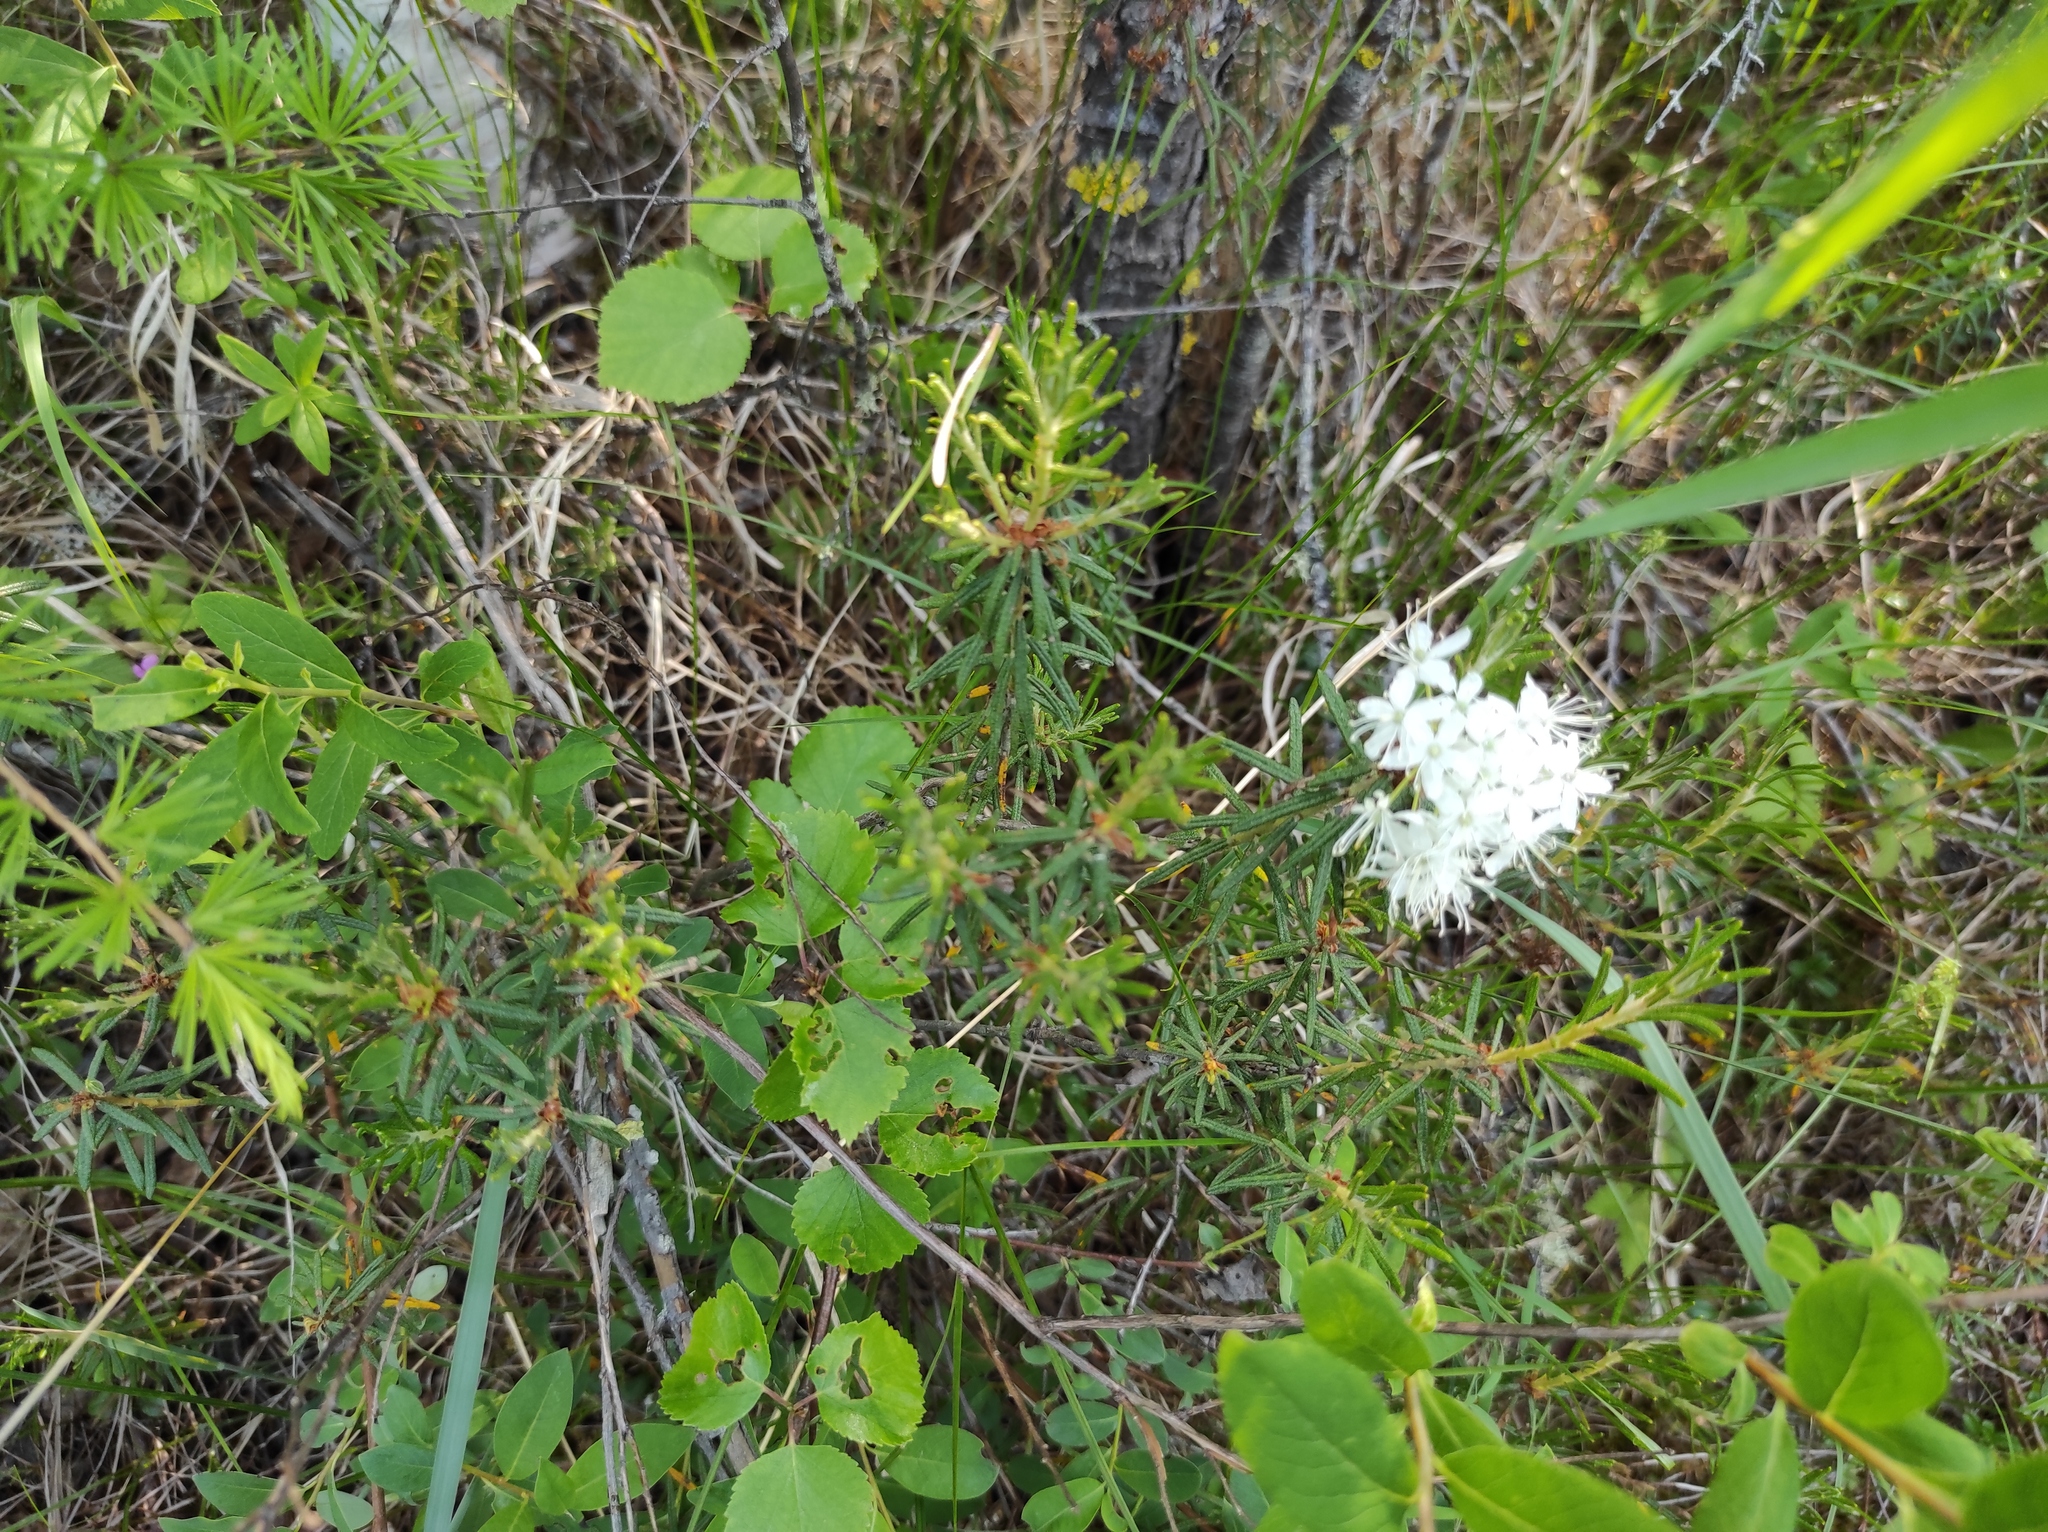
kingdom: Plantae
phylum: Tracheophyta
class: Magnoliopsida
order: Ericales
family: Ericaceae
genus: Rhododendron
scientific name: Rhododendron tomentosum
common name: Marsh labrador tea
